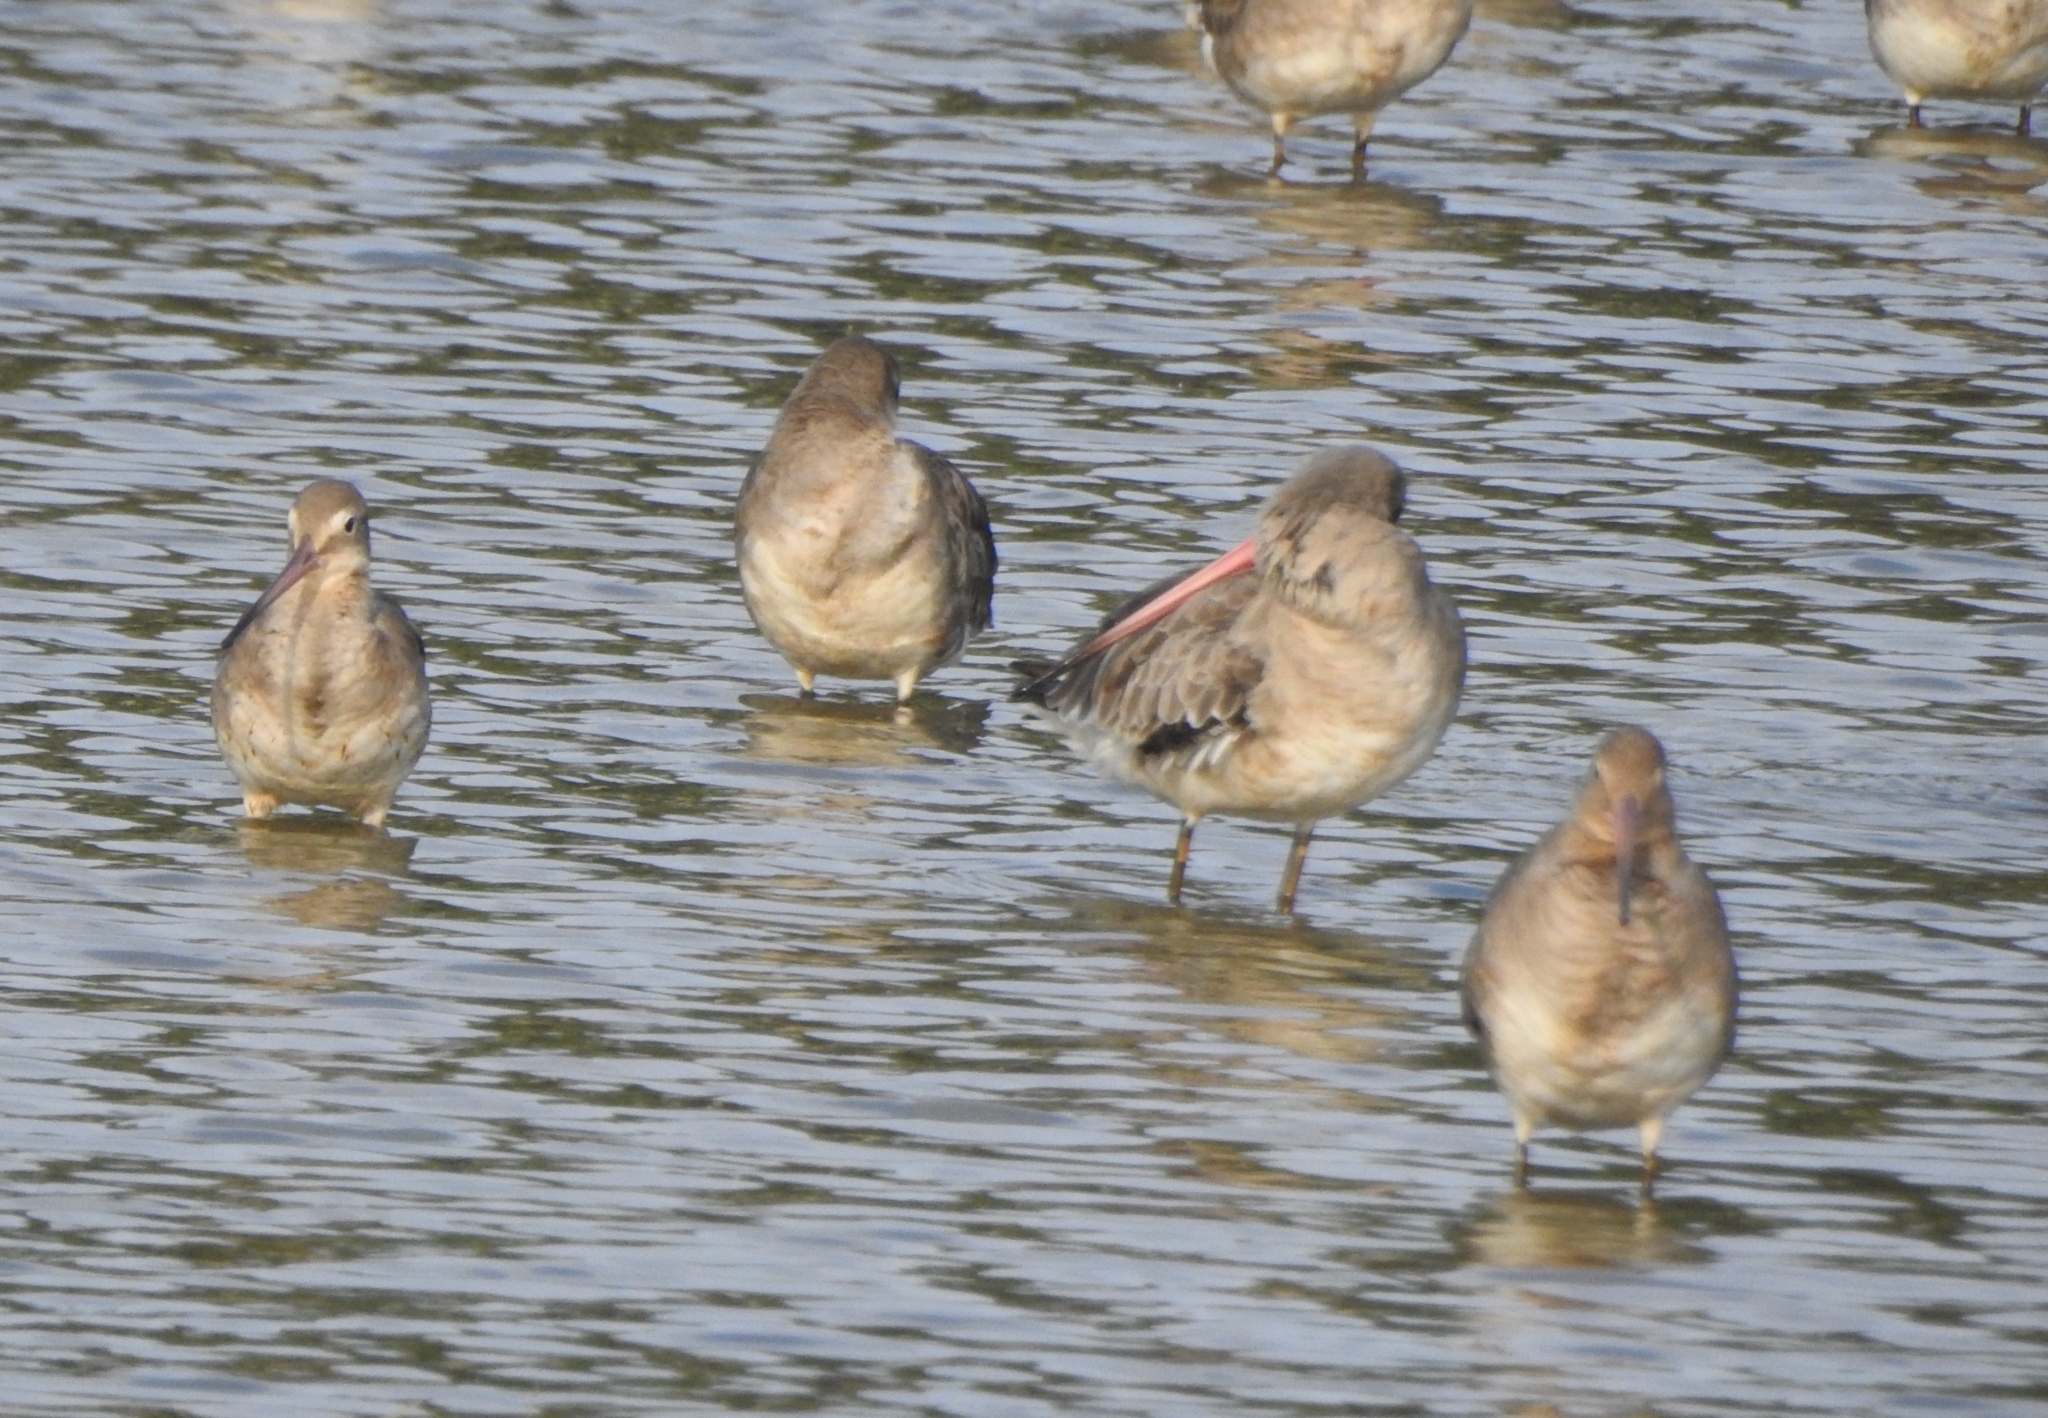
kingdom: Animalia
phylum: Chordata
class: Aves
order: Charadriiformes
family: Scolopacidae
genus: Limosa
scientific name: Limosa limosa
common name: Black-tailed godwit
